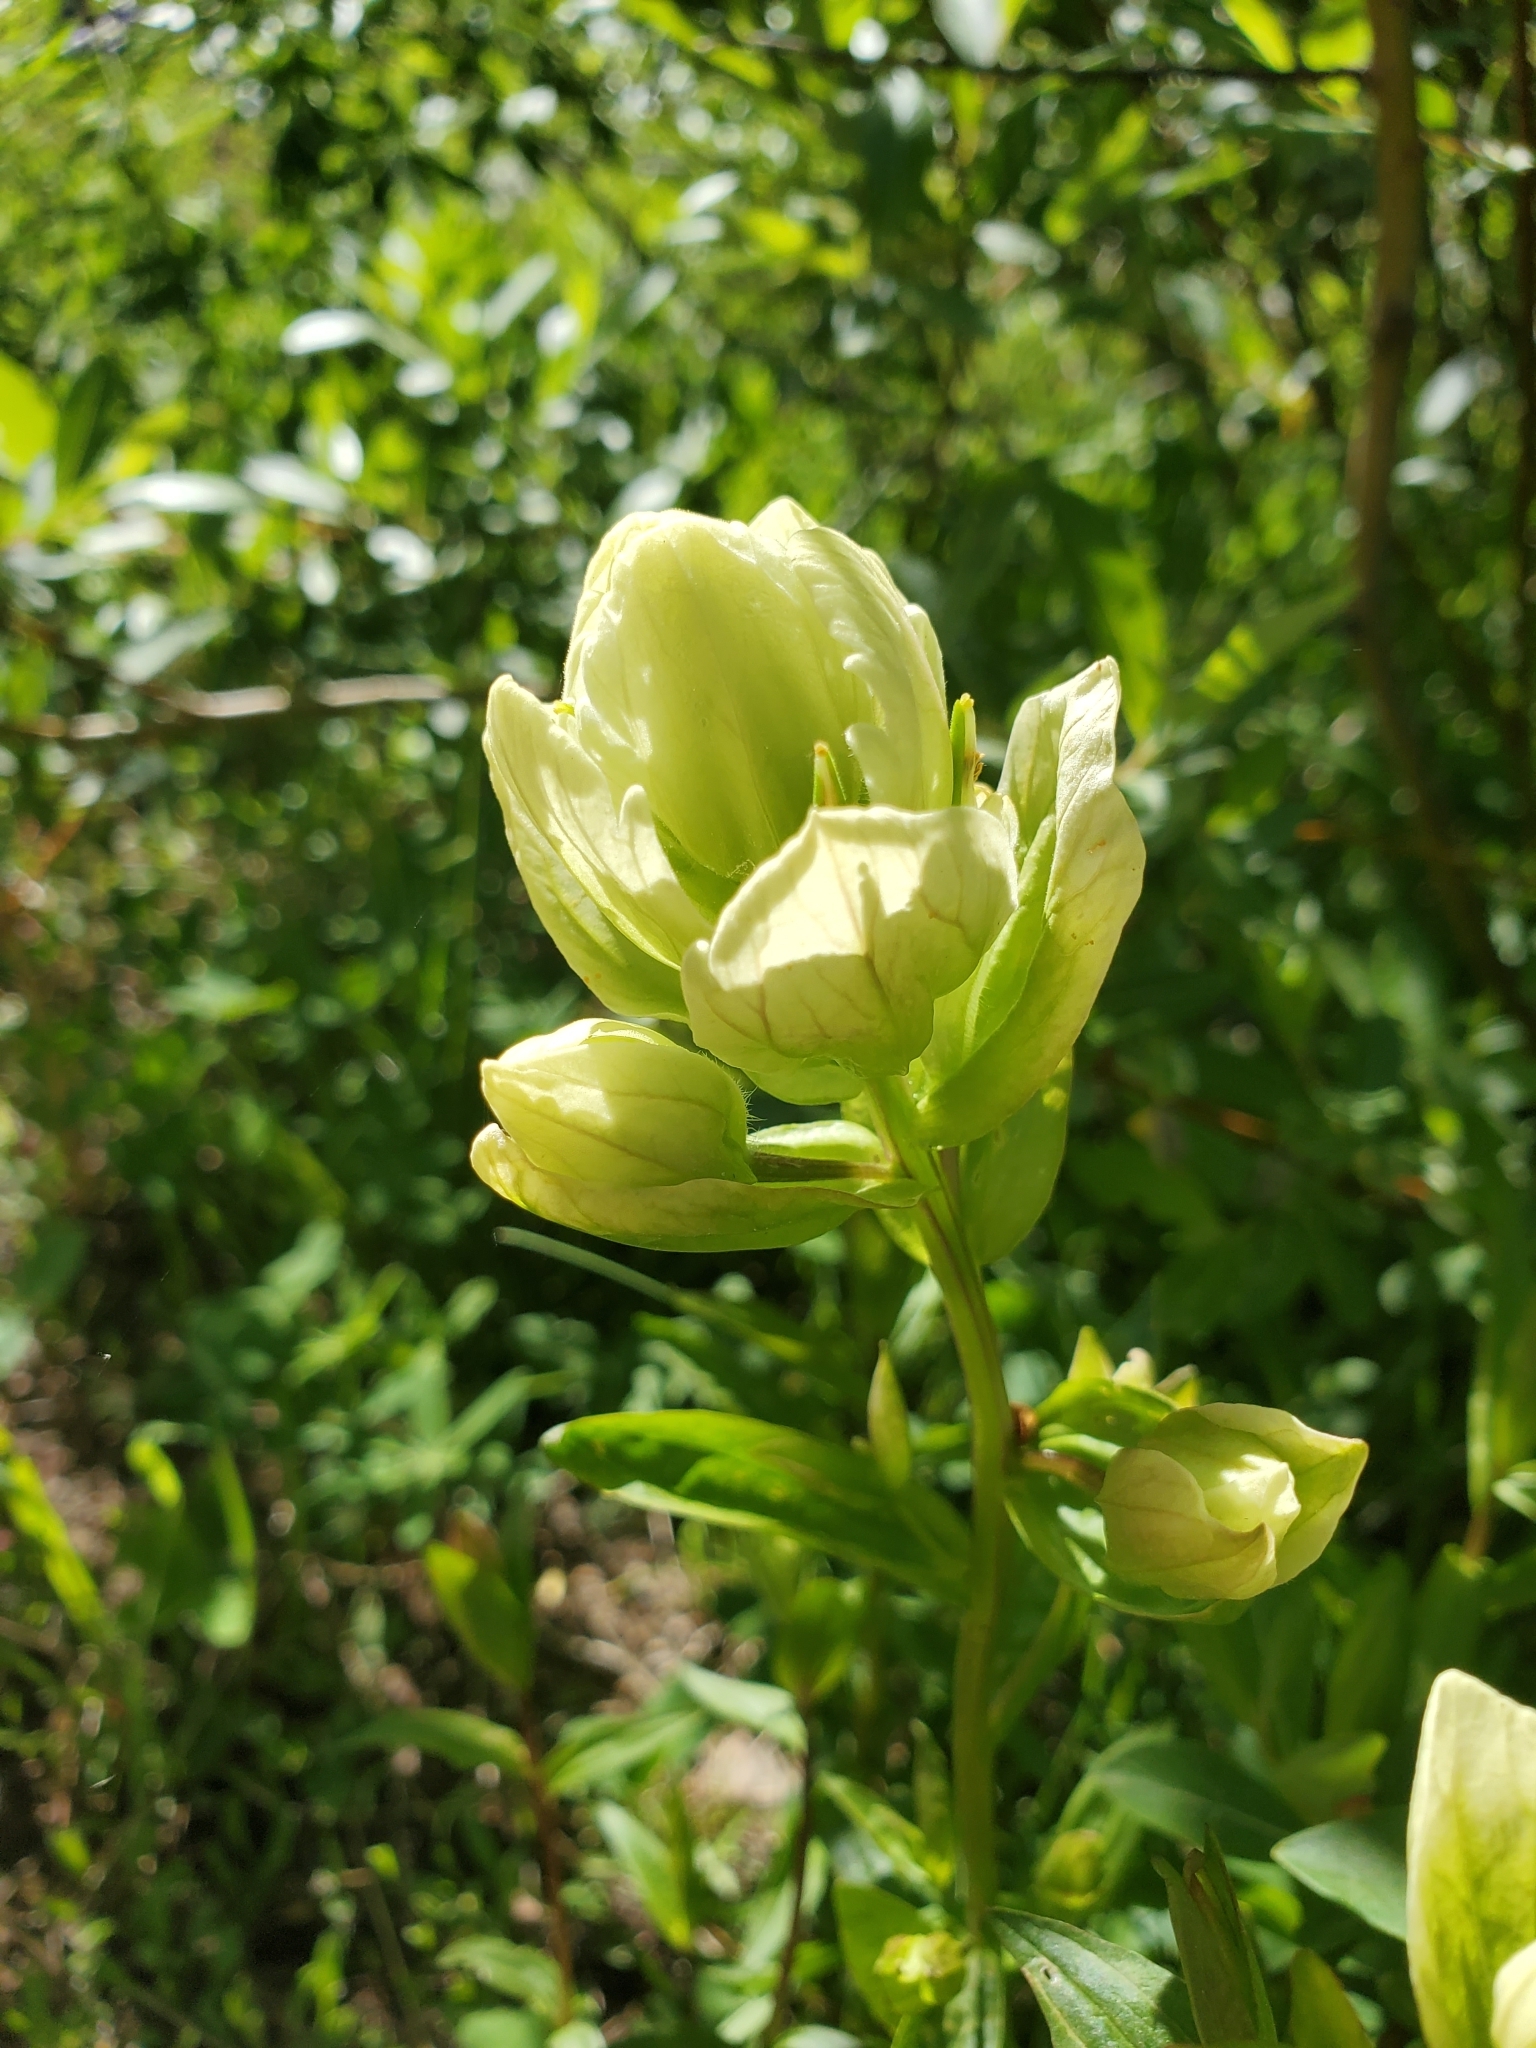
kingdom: Plantae
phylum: Tracheophyta
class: Magnoliopsida
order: Lamiales
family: Orobanchaceae
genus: Castilleja
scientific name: Castilleja septentrionalis
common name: Northeastern paintbrush
